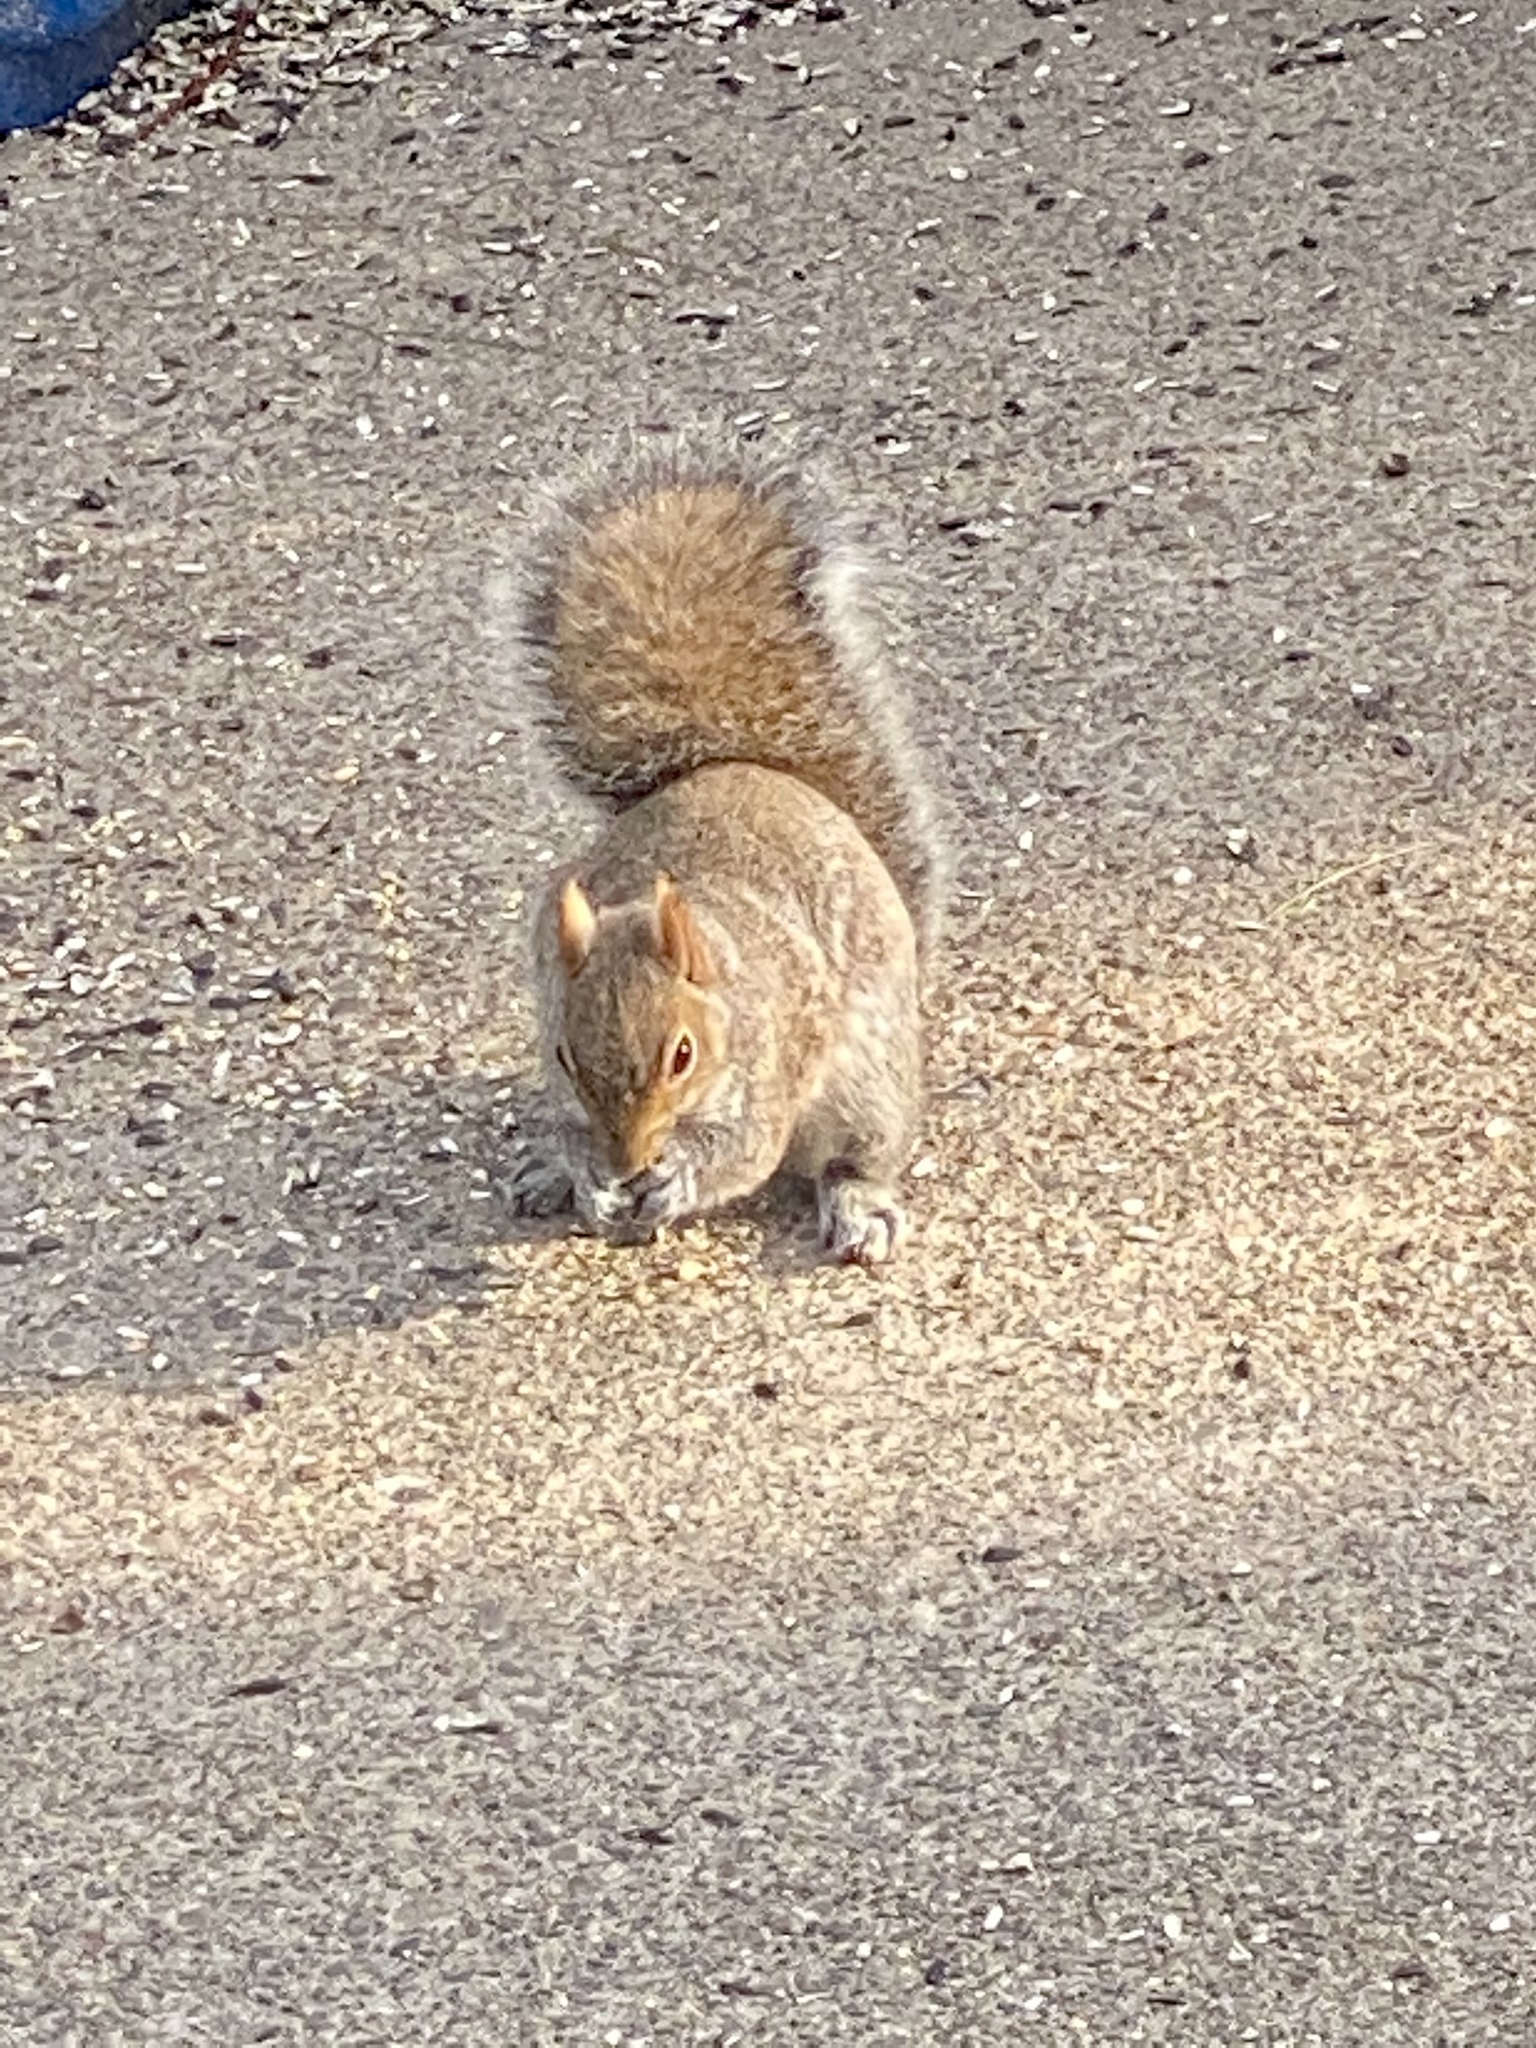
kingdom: Animalia
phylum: Chordata
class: Mammalia
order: Rodentia
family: Sciuridae
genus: Sciurus
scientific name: Sciurus carolinensis
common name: Eastern gray squirrel
